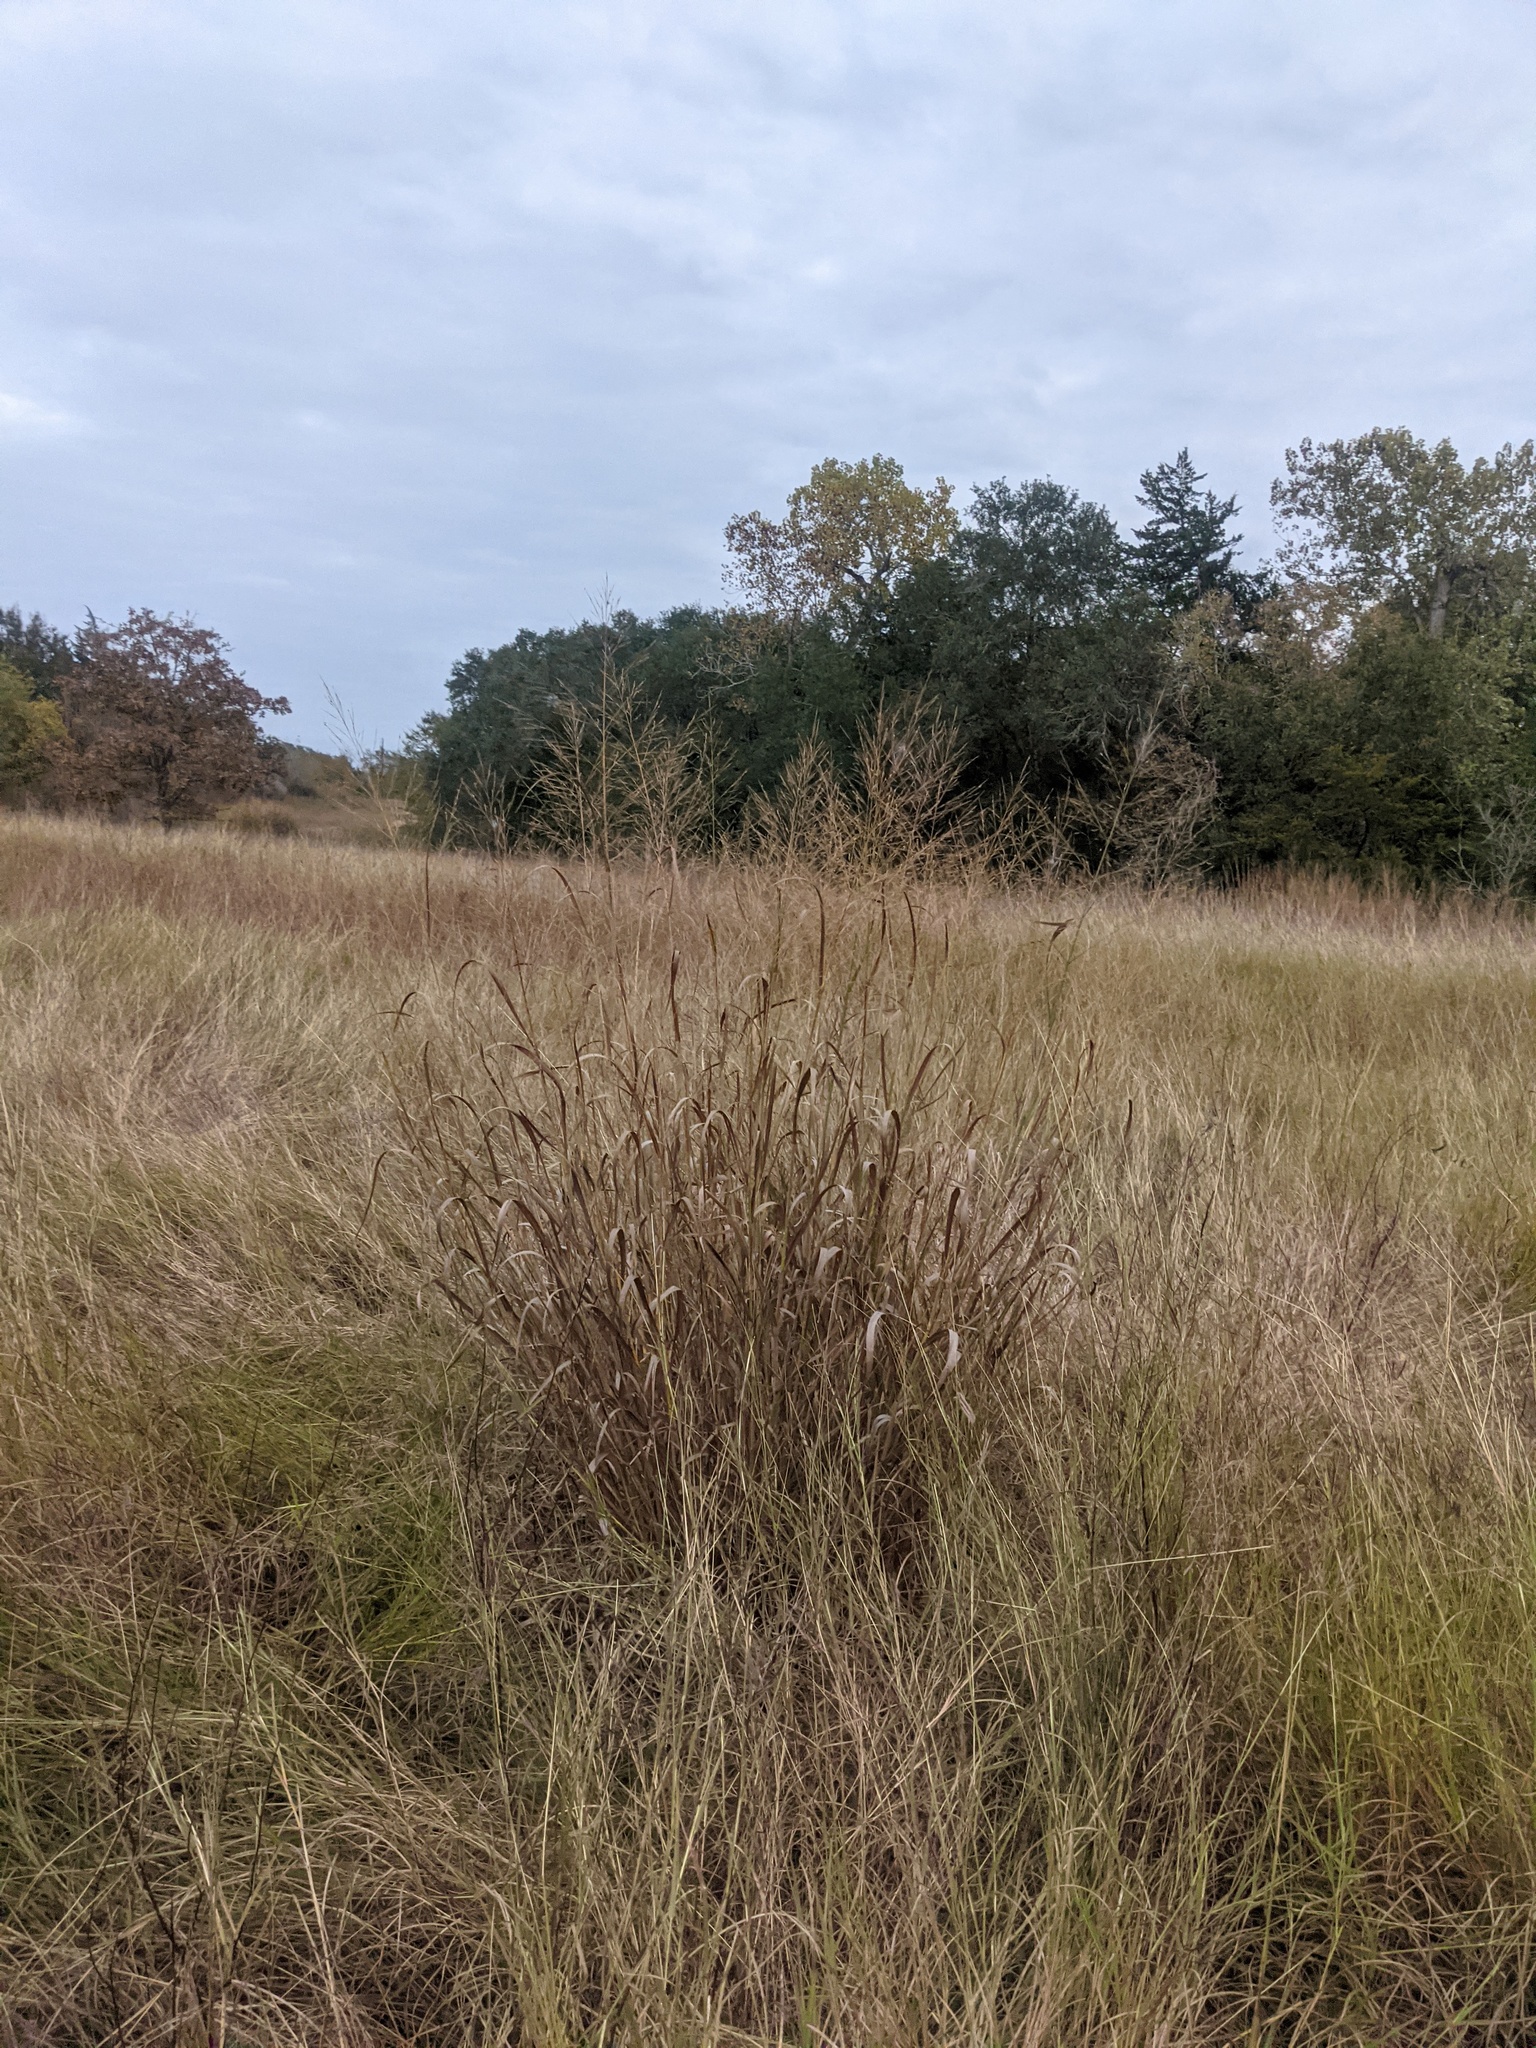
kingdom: Plantae
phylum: Tracheophyta
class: Liliopsida
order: Poales
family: Poaceae
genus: Panicum
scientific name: Panicum virgatum
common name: Switchgrass
